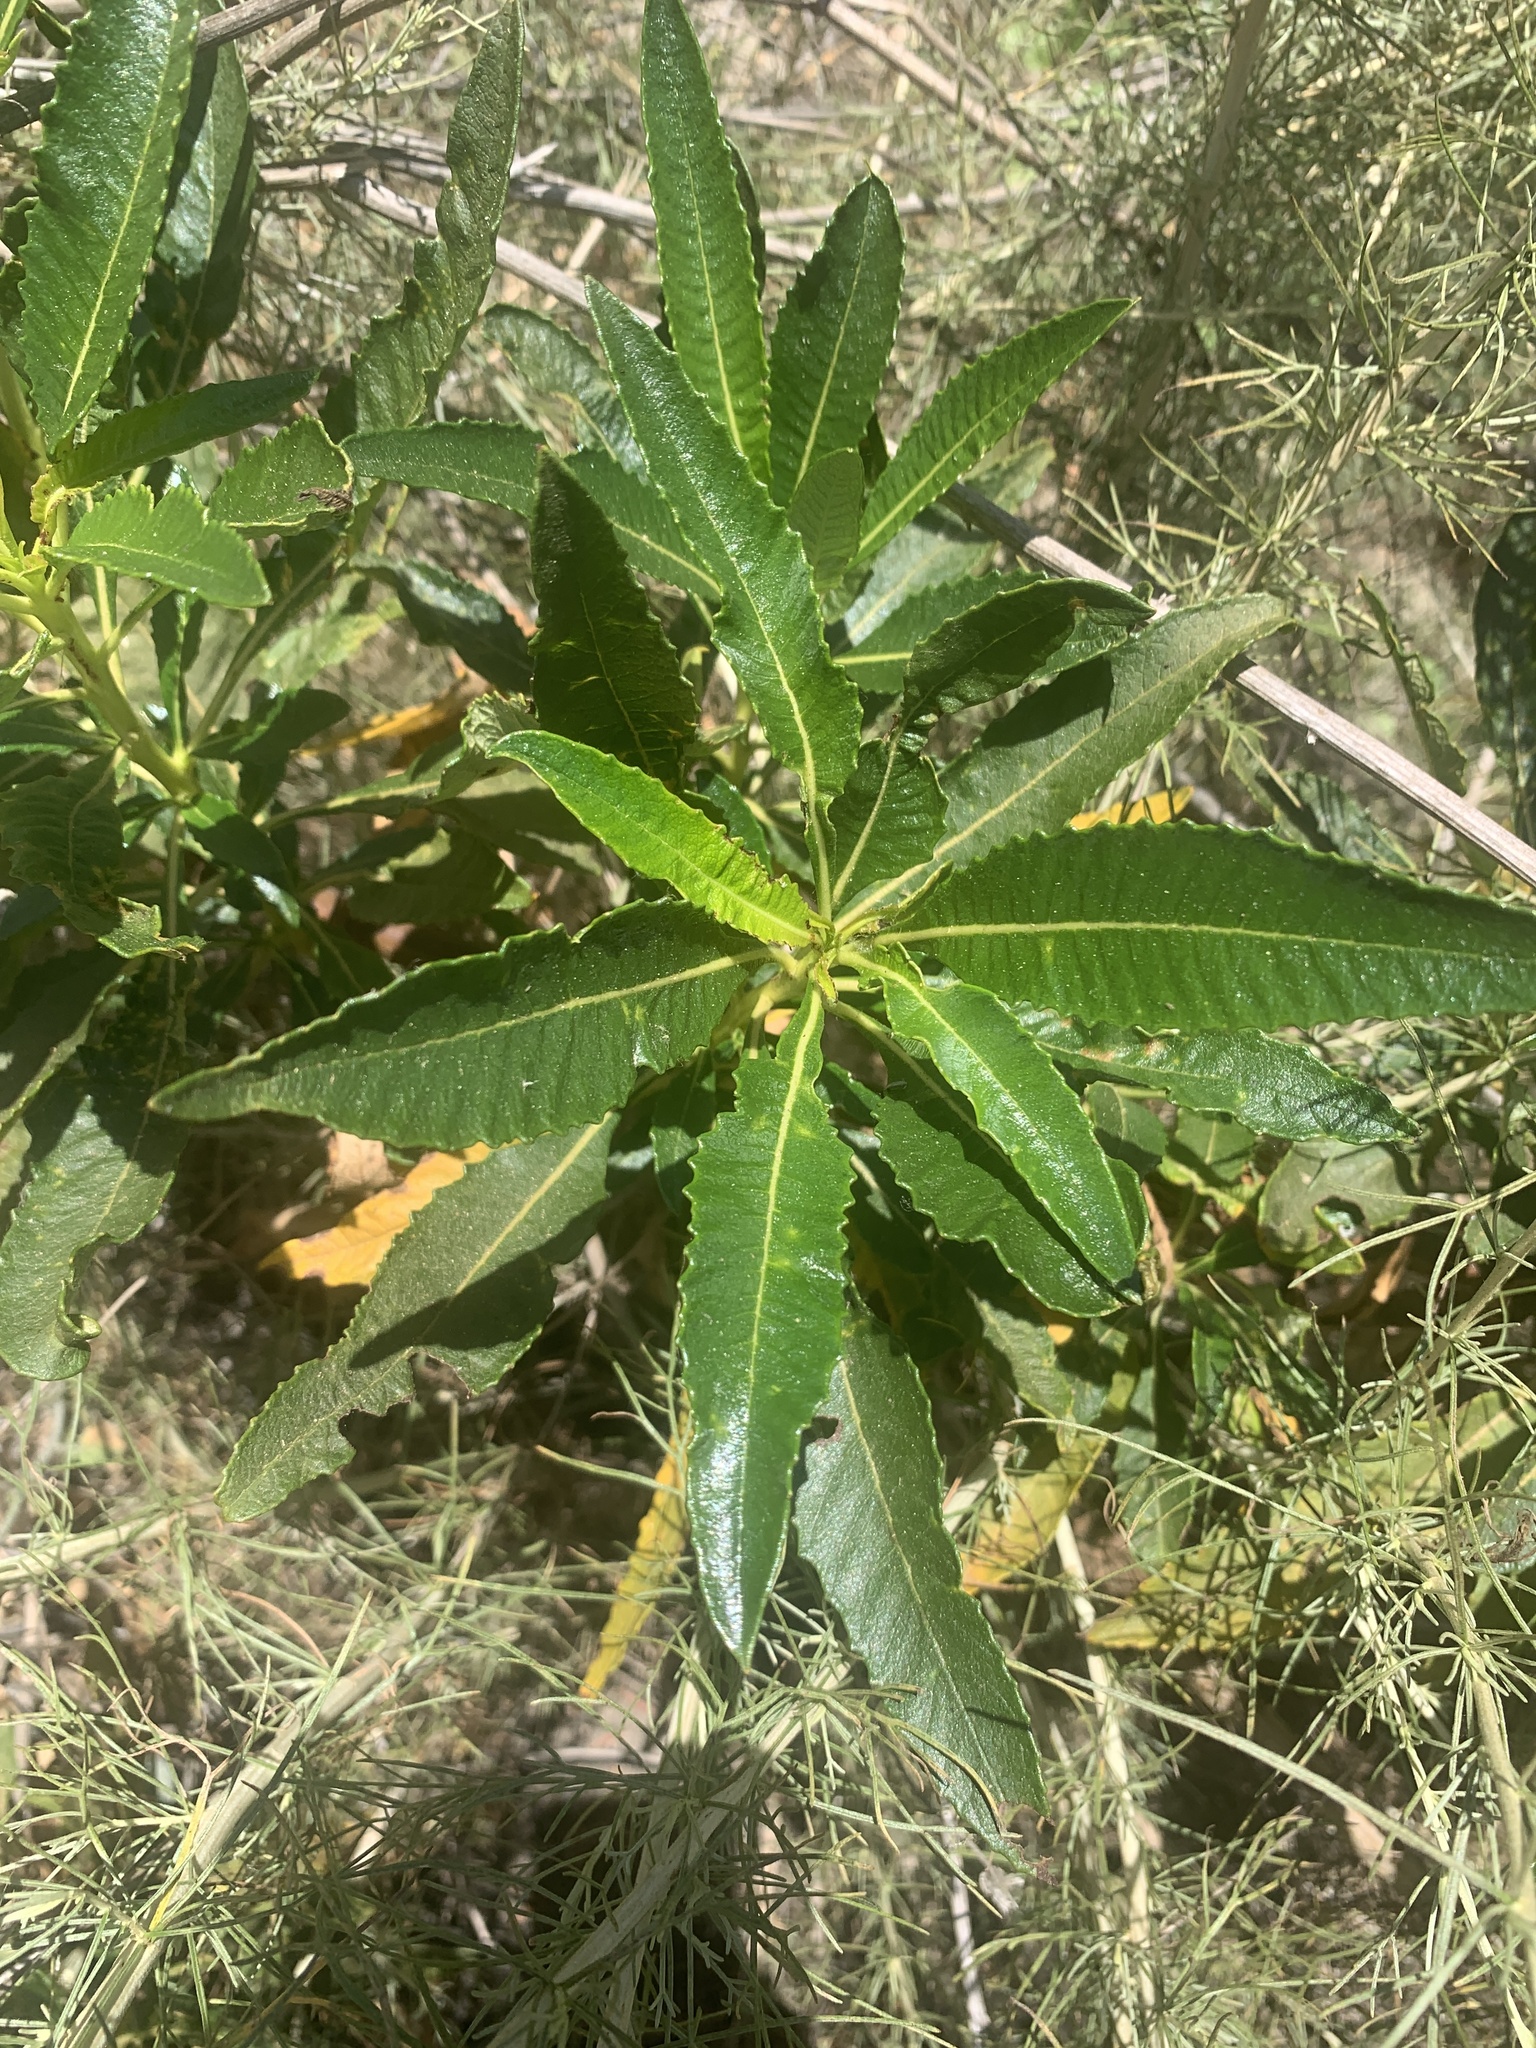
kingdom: Plantae
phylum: Tracheophyta
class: Magnoliopsida
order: Boraginales
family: Namaceae
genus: Eriodictyon
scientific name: Eriodictyon trichocalyx
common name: Hairy yerba-santa
